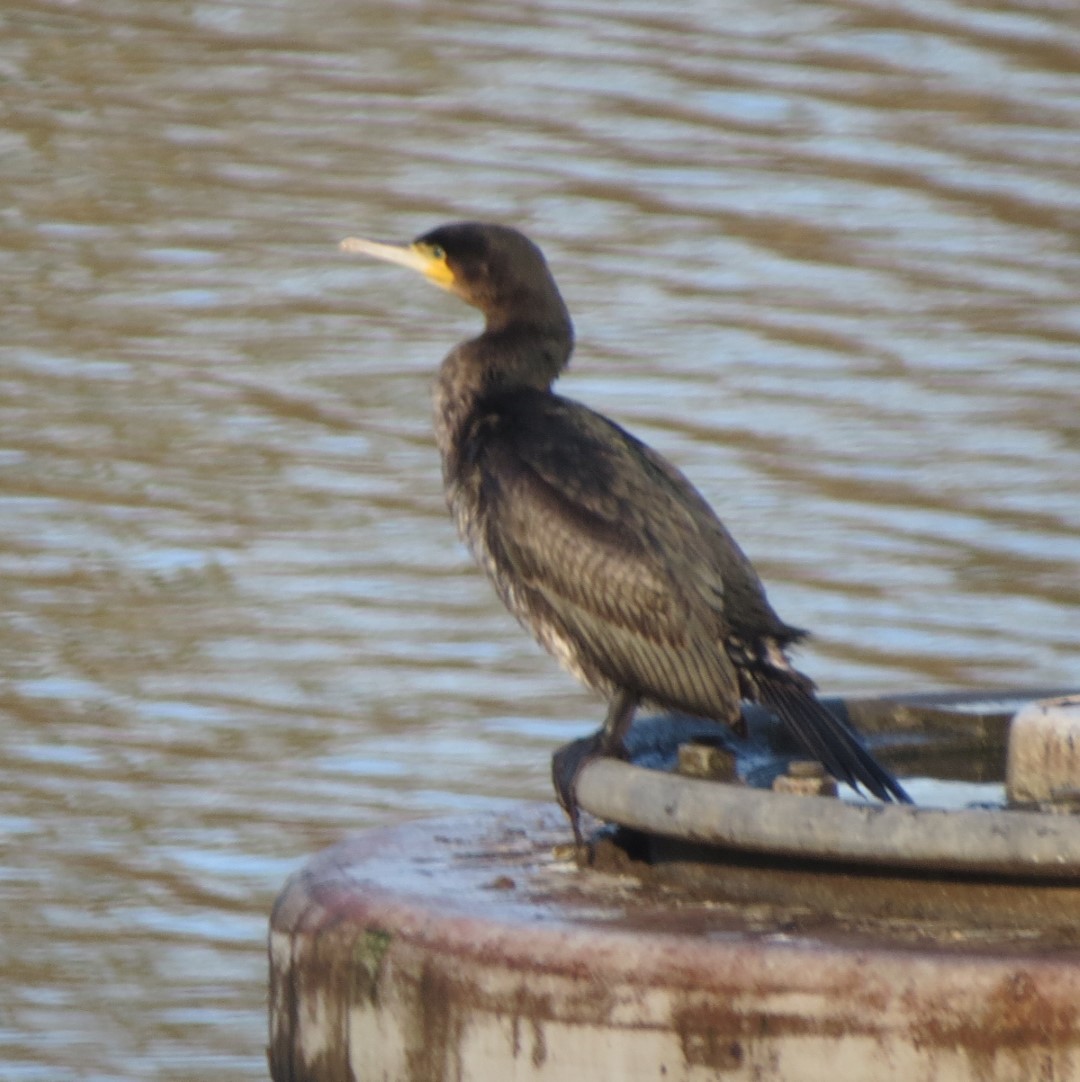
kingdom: Animalia
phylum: Chordata
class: Aves
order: Suliformes
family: Phalacrocoracidae
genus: Phalacrocorax
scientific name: Phalacrocorax carbo
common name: Great cormorant
